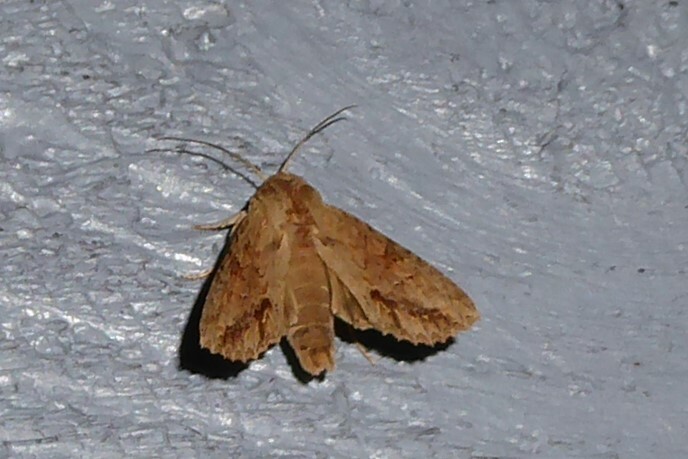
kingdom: Animalia
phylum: Arthropoda
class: Insecta
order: Lepidoptera
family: Noctuidae
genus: Ichneutica
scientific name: Ichneutica mollis
